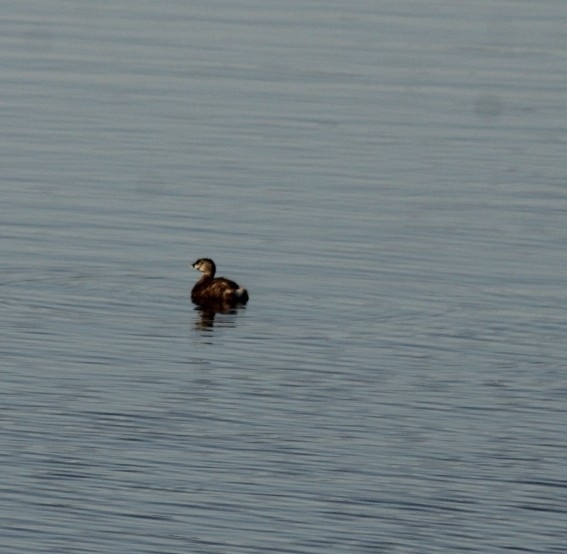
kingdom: Animalia
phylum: Chordata
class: Aves
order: Podicipediformes
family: Podicipedidae
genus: Podilymbus
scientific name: Podilymbus podiceps
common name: Pied-billed grebe
